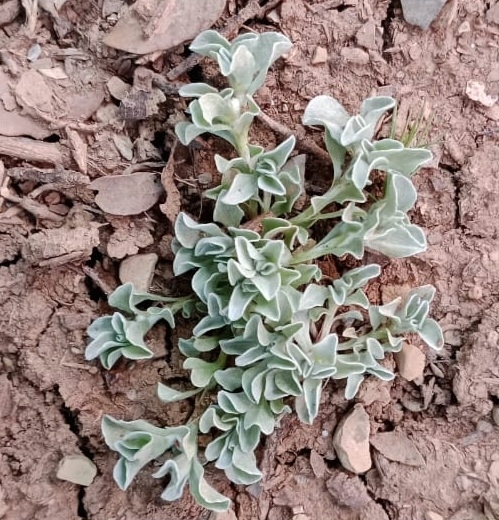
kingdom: Plantae
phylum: Tracheophyta
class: Magnoliopsida
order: Asterales
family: Asteraceae
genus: Micropus
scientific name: Micropus supinus
